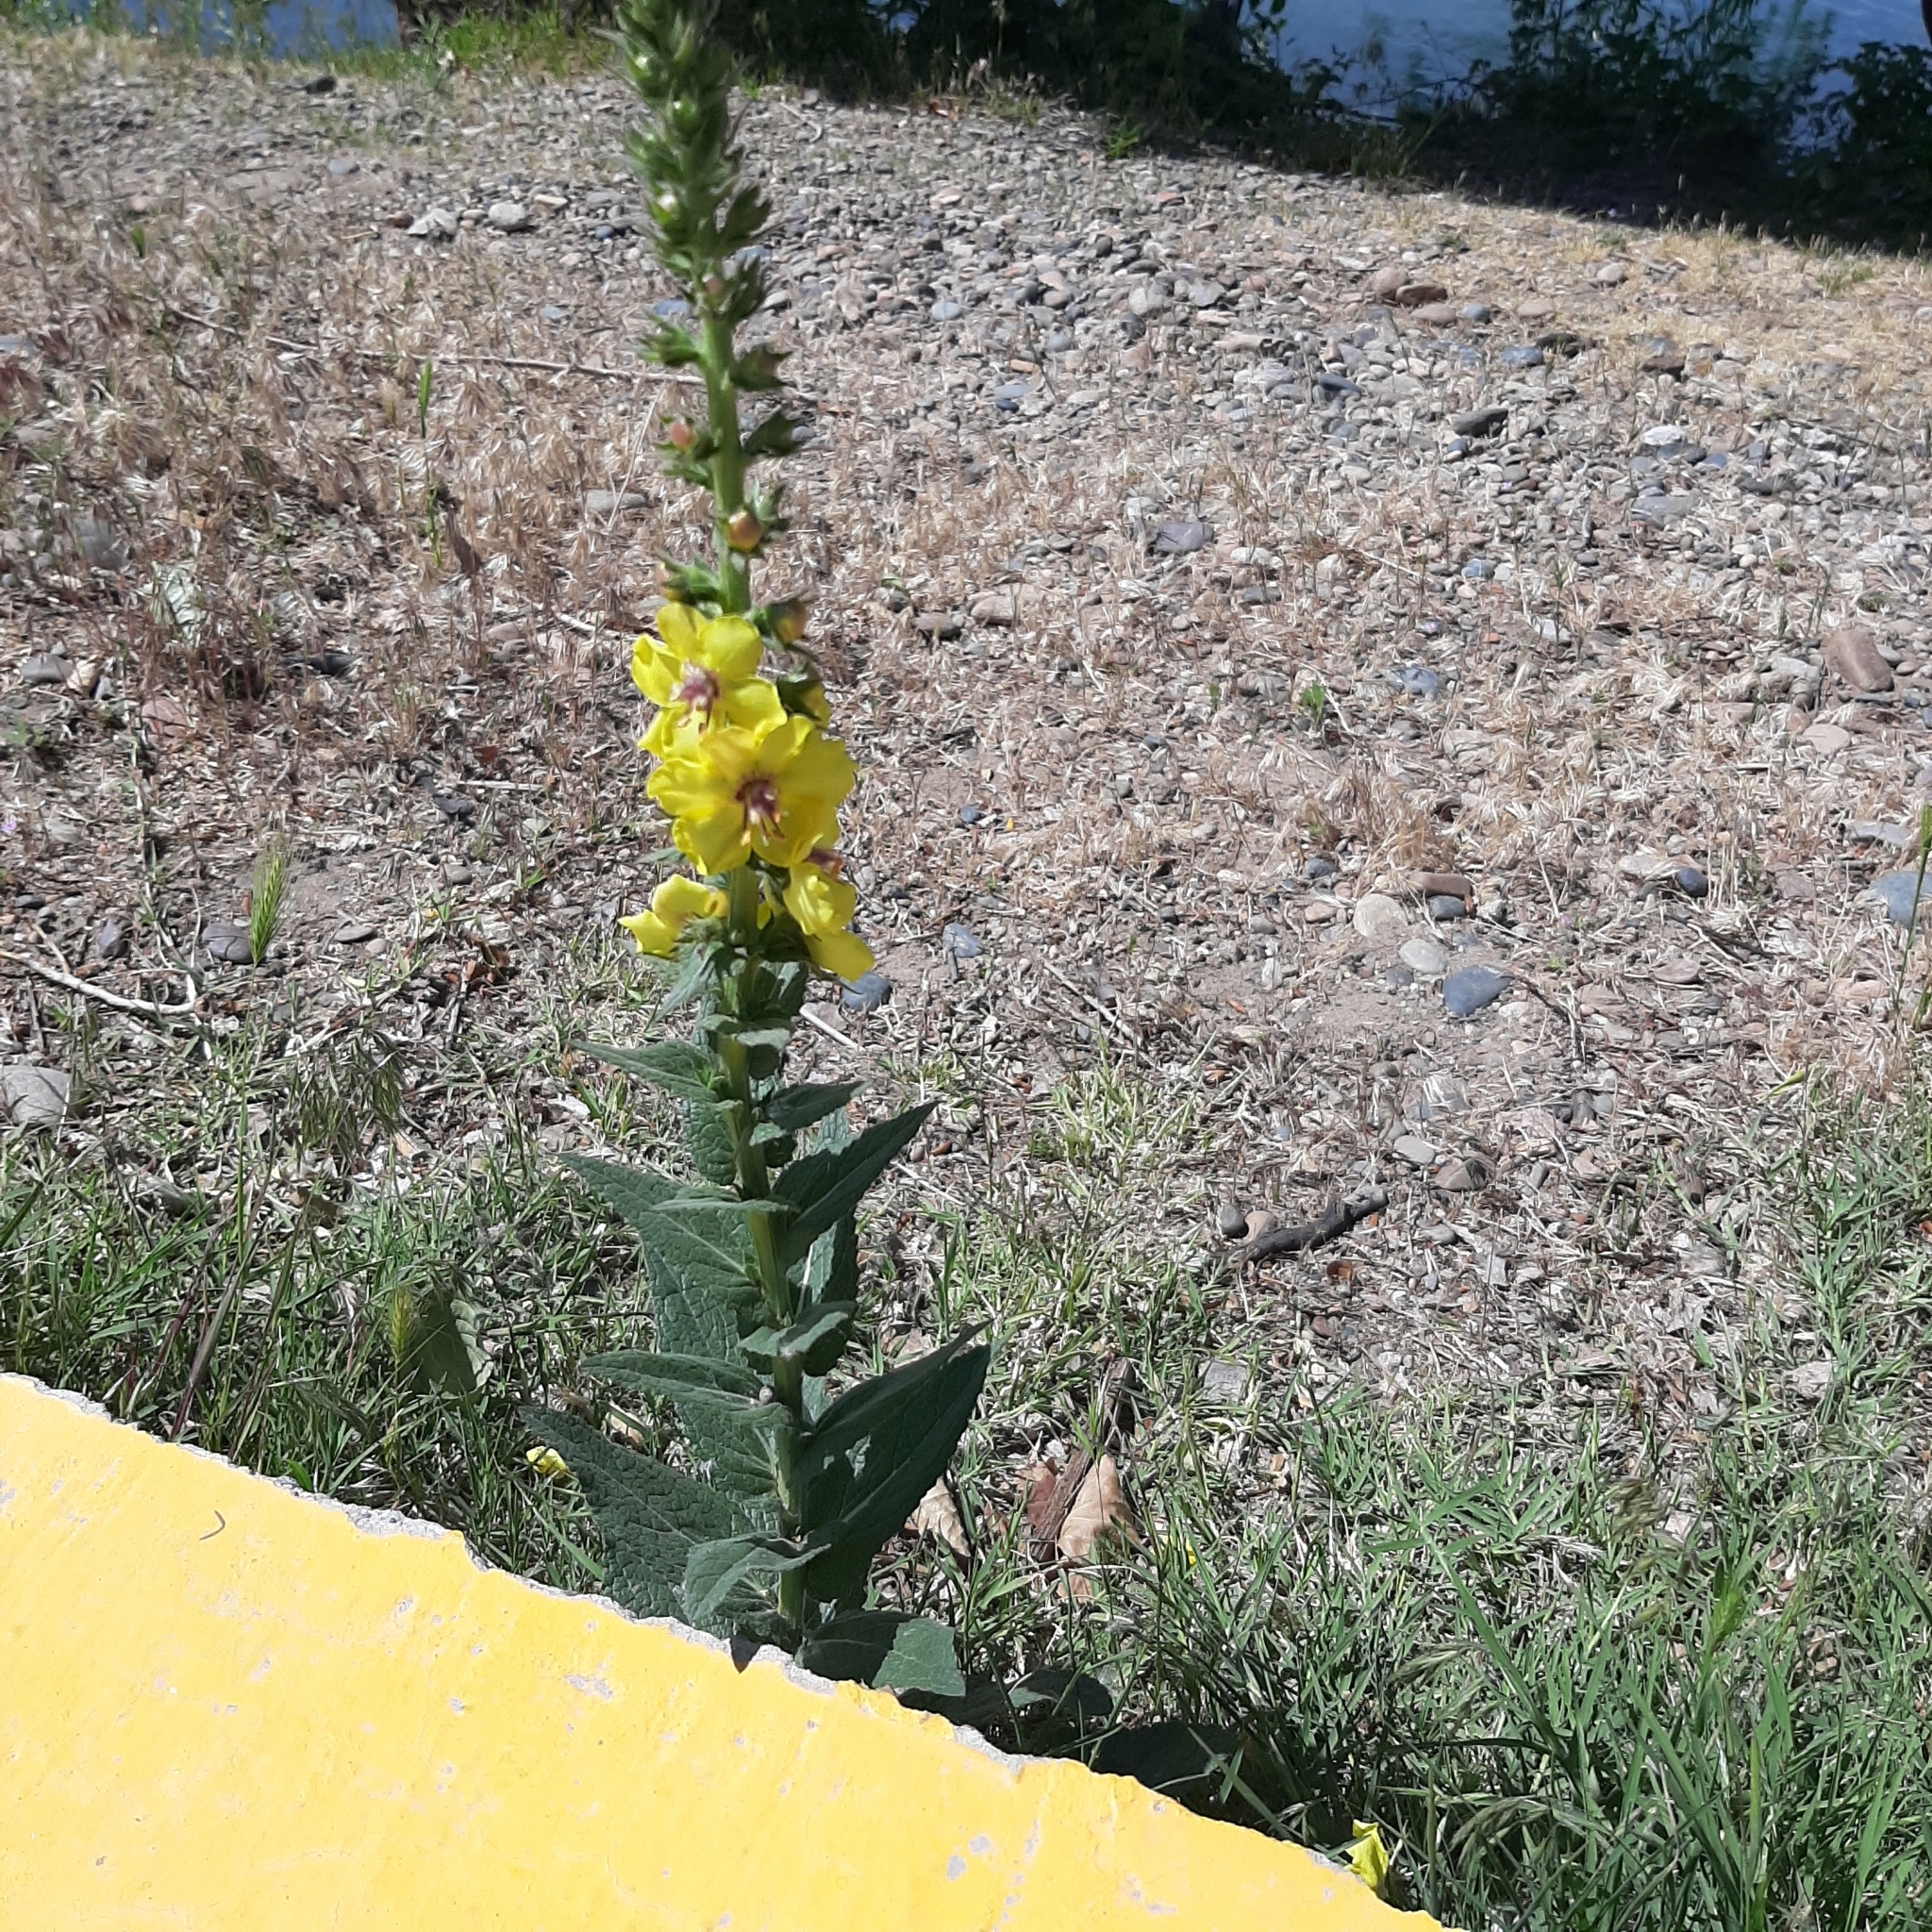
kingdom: Plantae
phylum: Tracheophyta
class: Magnoliopsida
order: Lamiales
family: Scrophulariaceae
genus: Verbascum
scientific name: Verbascum virgatum
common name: Twiggy mullein
